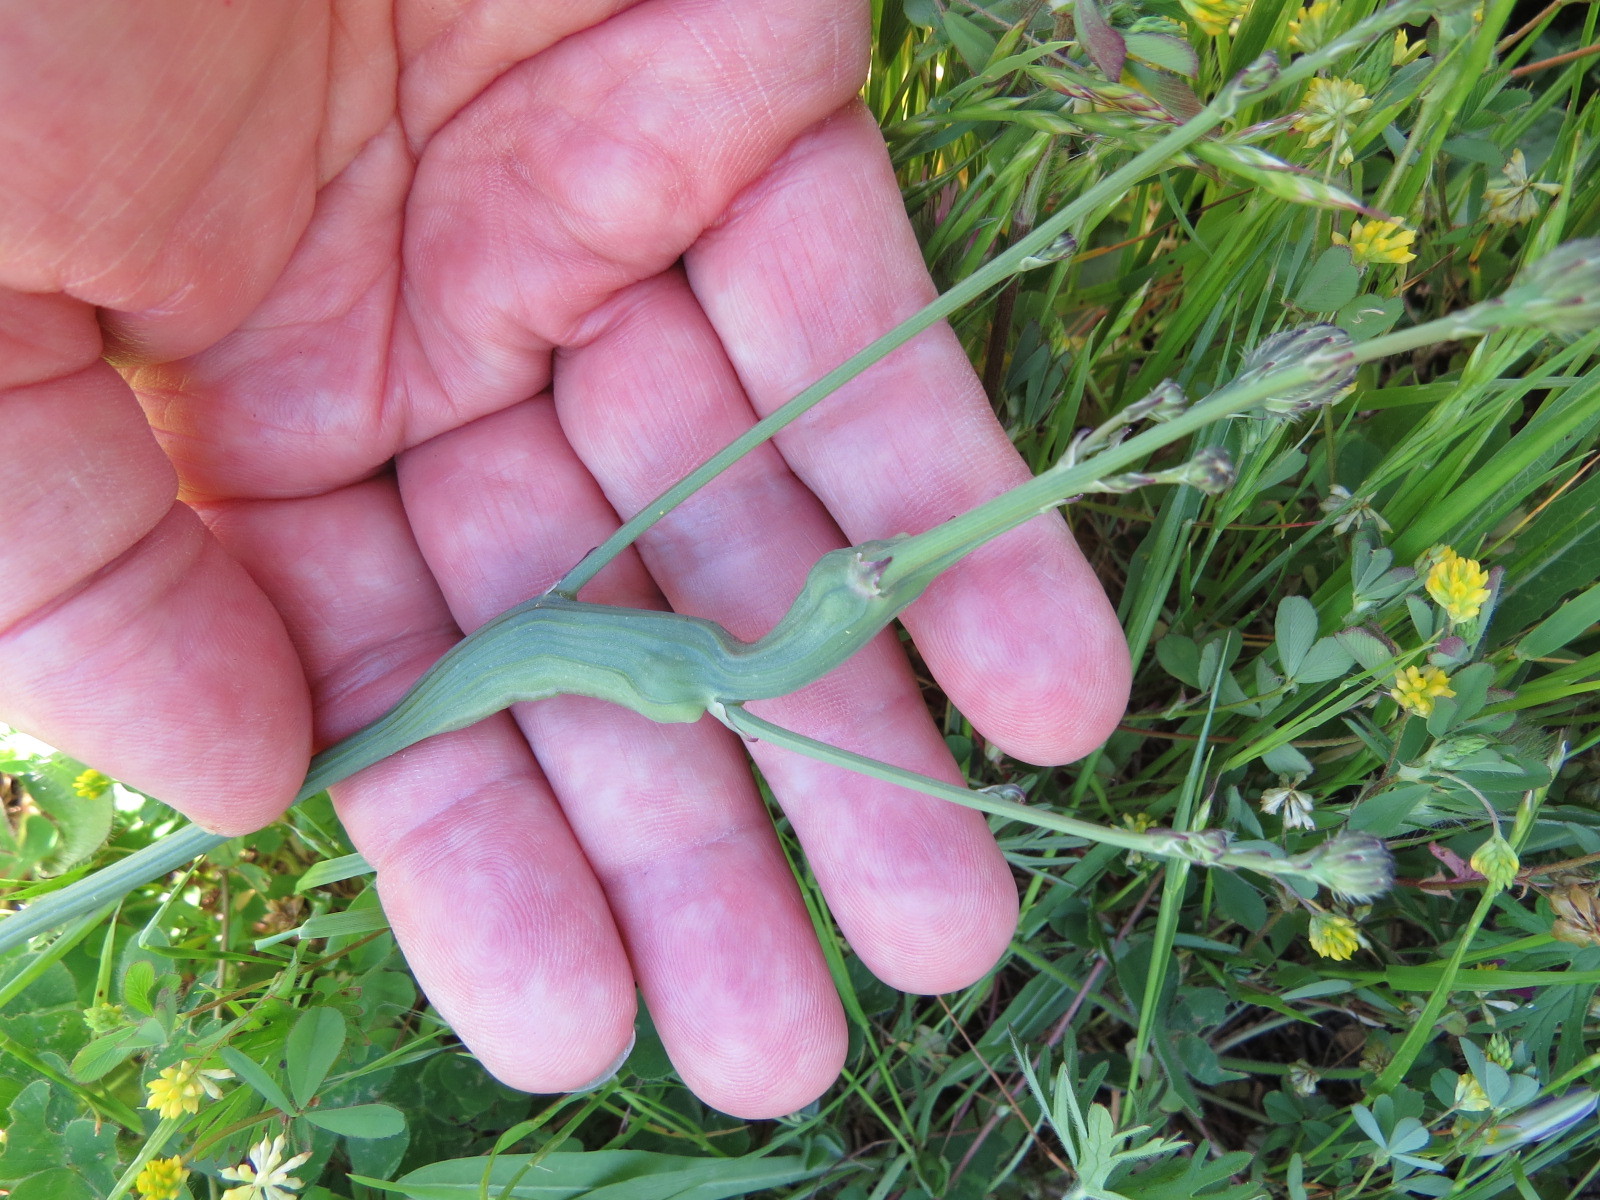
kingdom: Animalia
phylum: Arthropoda
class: Insecta
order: Hymenoptera
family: Cynipidae
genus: Phanacis
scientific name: Phanacis hypochoeridis
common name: Gall wasp
